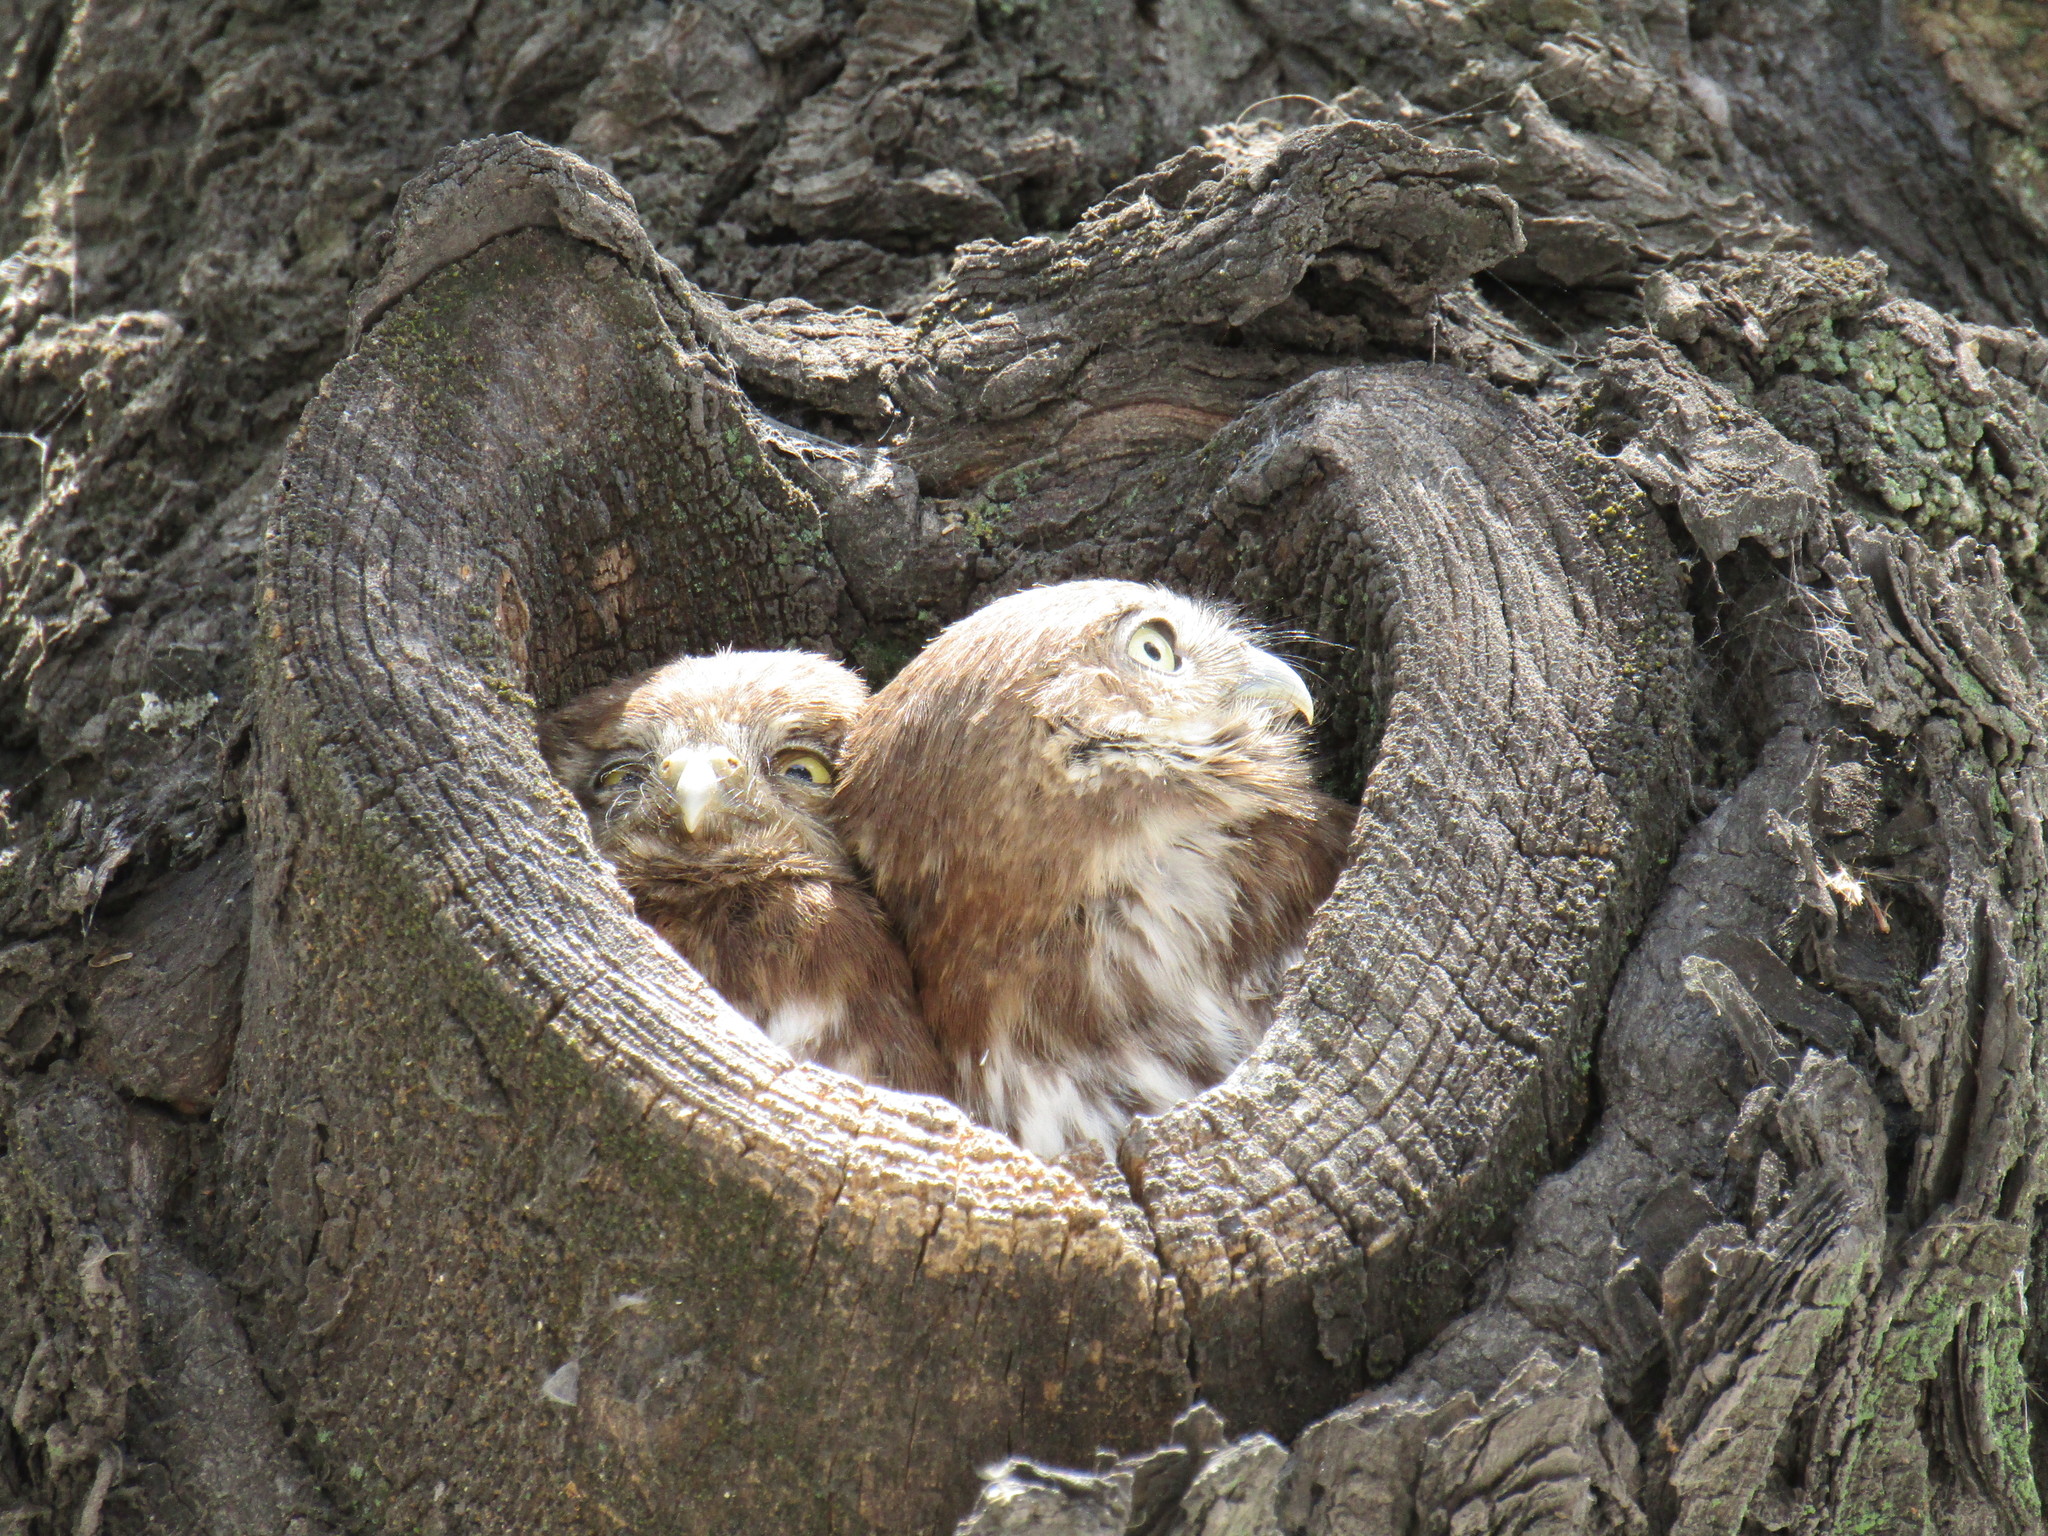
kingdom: Animalia
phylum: Chordata
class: Aves
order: Strigiformes
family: Strigidae
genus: Glaucidium
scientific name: Glaucidium brasilianum
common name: Ferruginous pygmy-owl
